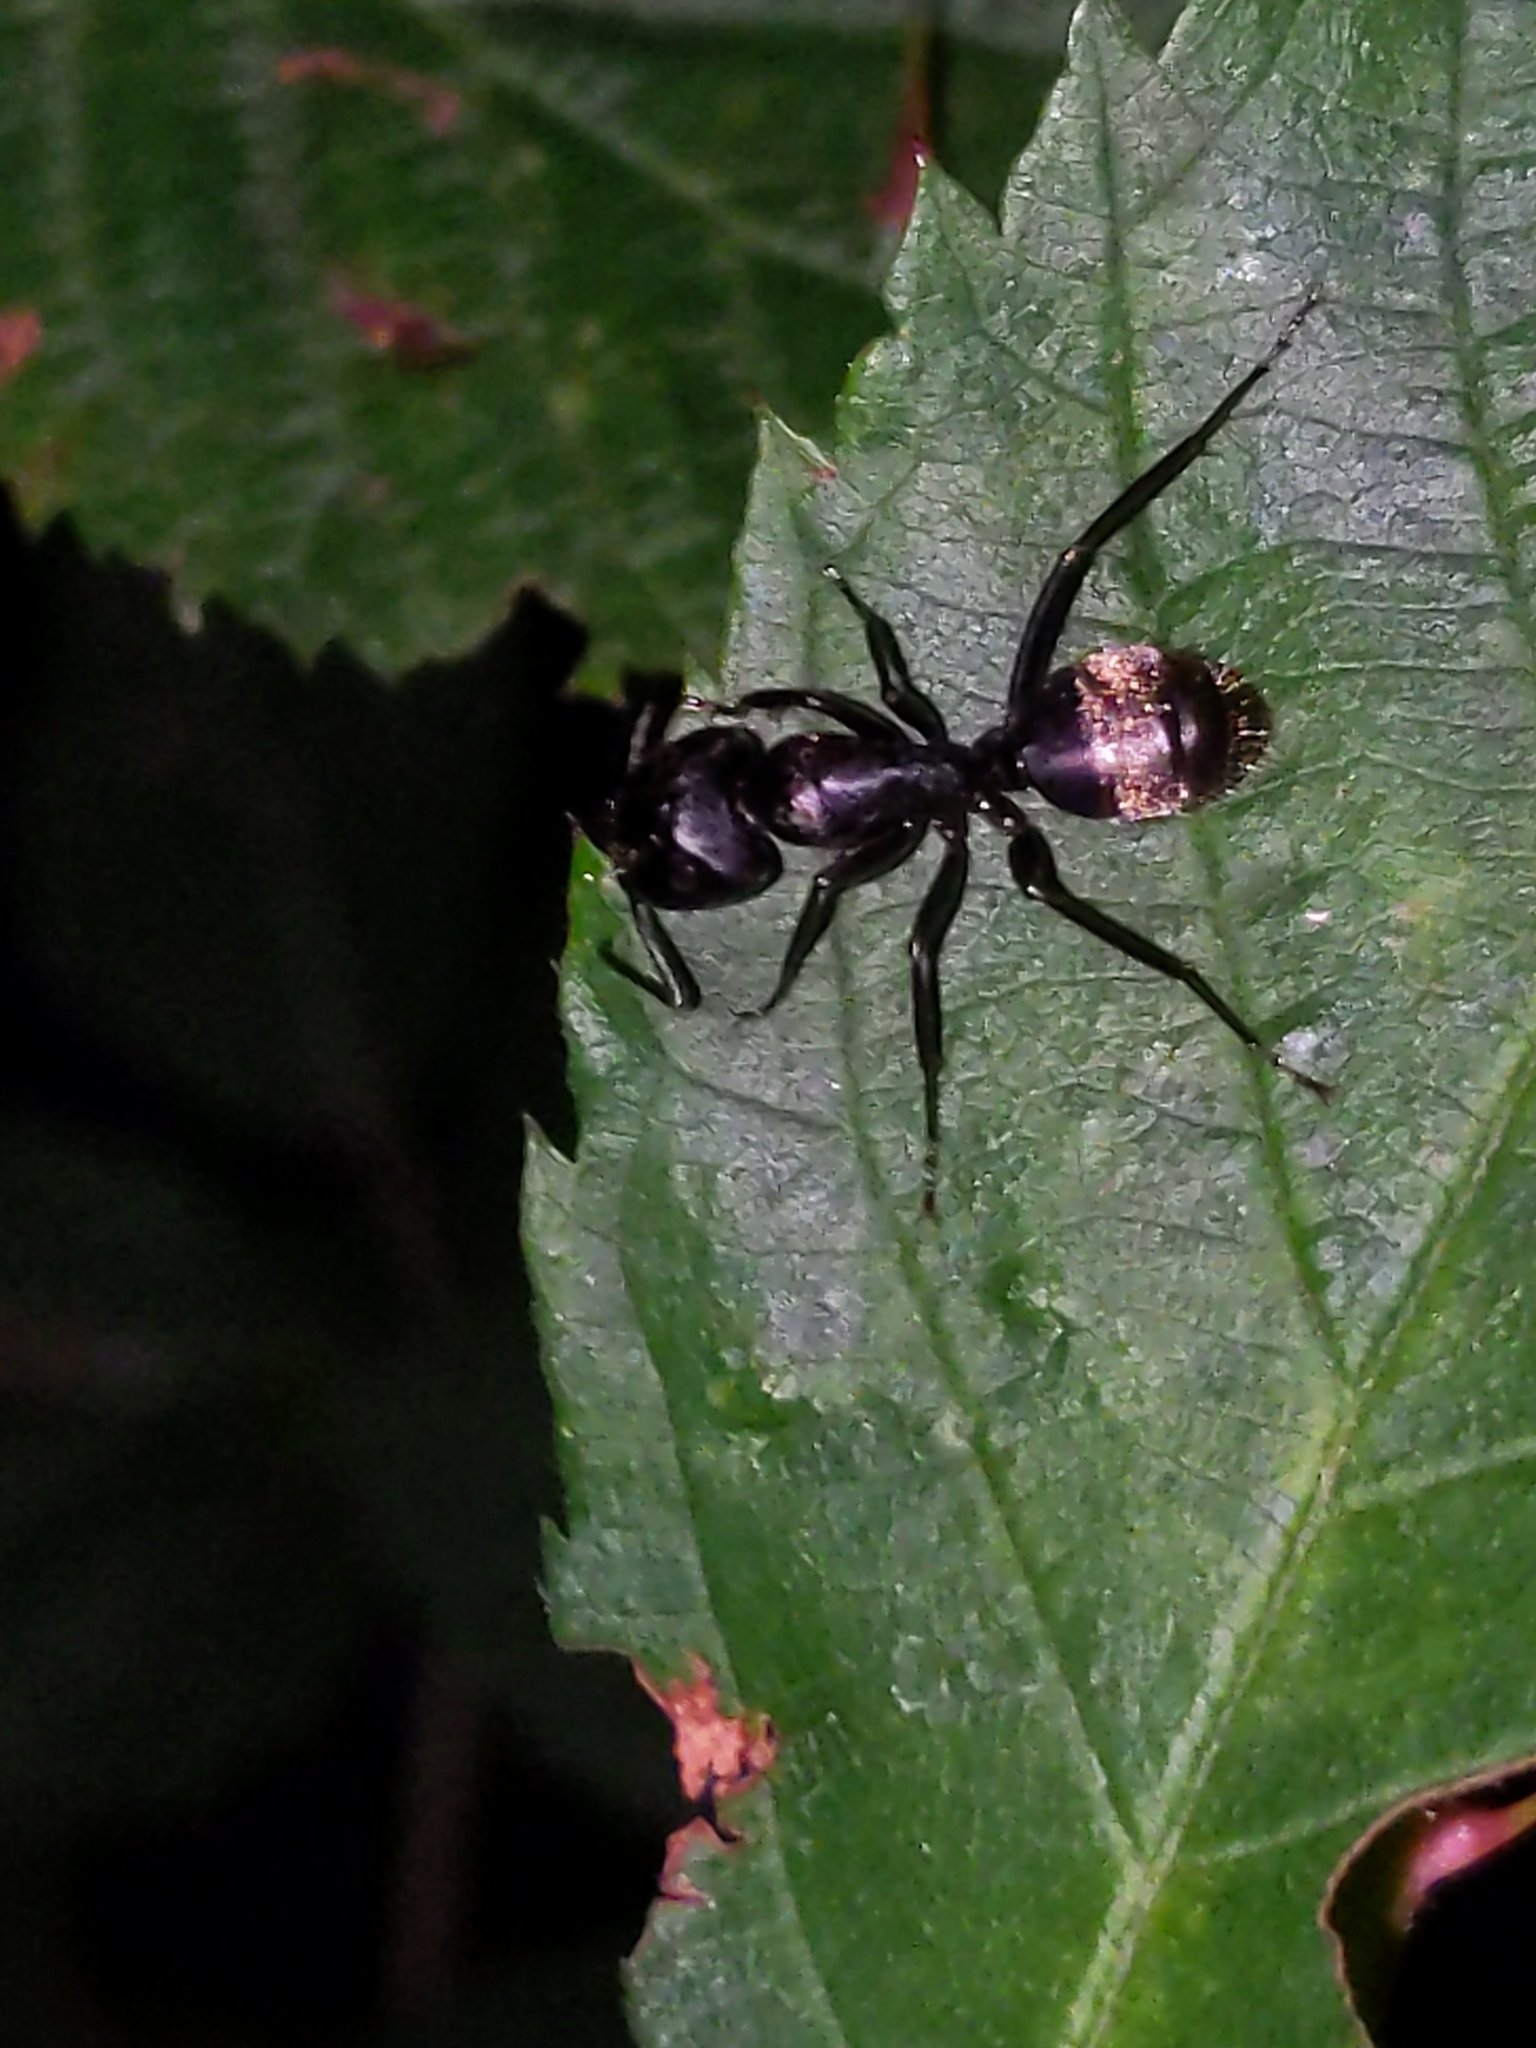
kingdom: Animalia
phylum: Arthropoda
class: Insecta
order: Hymenoptera
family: Formicidae
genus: Camponotus
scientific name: Camponotus pennsylvanicus
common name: Black carpenter ant
